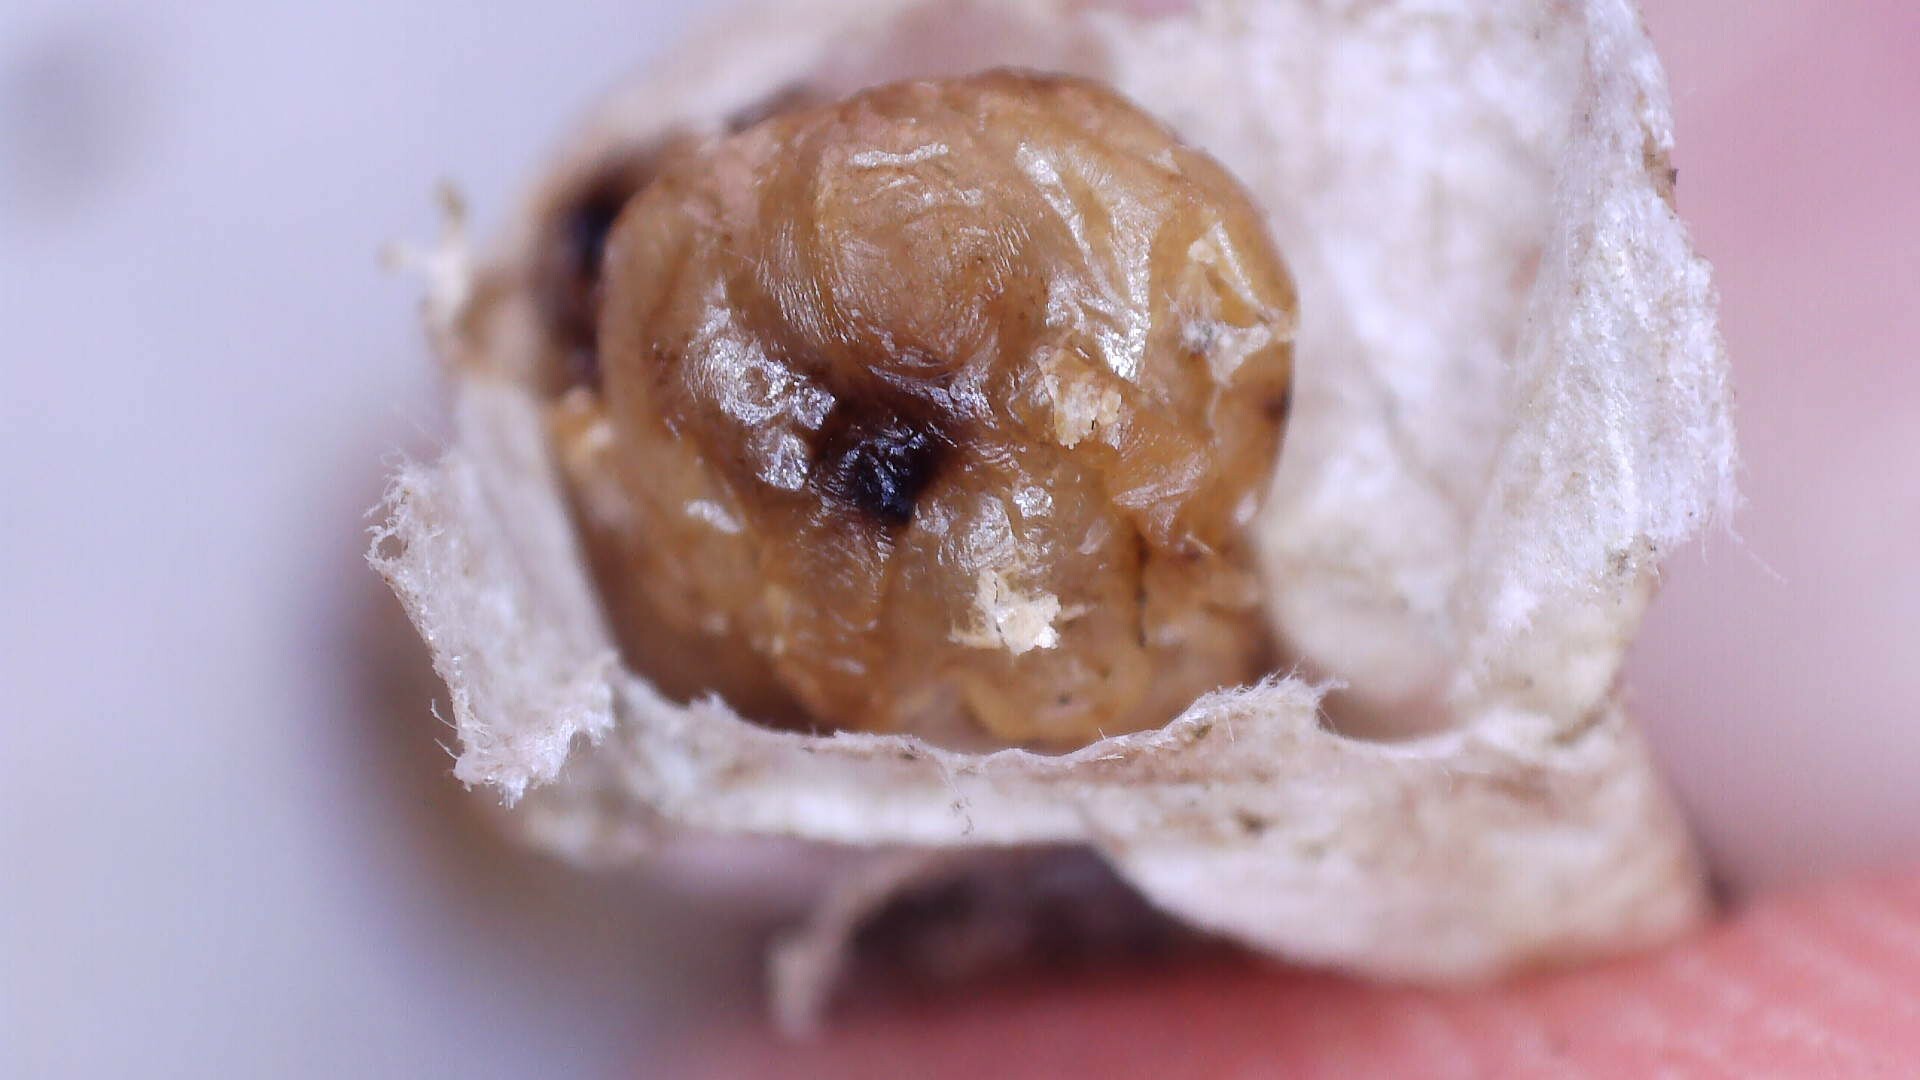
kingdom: Animalia
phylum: Arthropoda
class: Insecta
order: Hymenoptera
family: Vespidae
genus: Dolichovespula
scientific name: Dolichovespula maculata
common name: Bald-faced hornet
